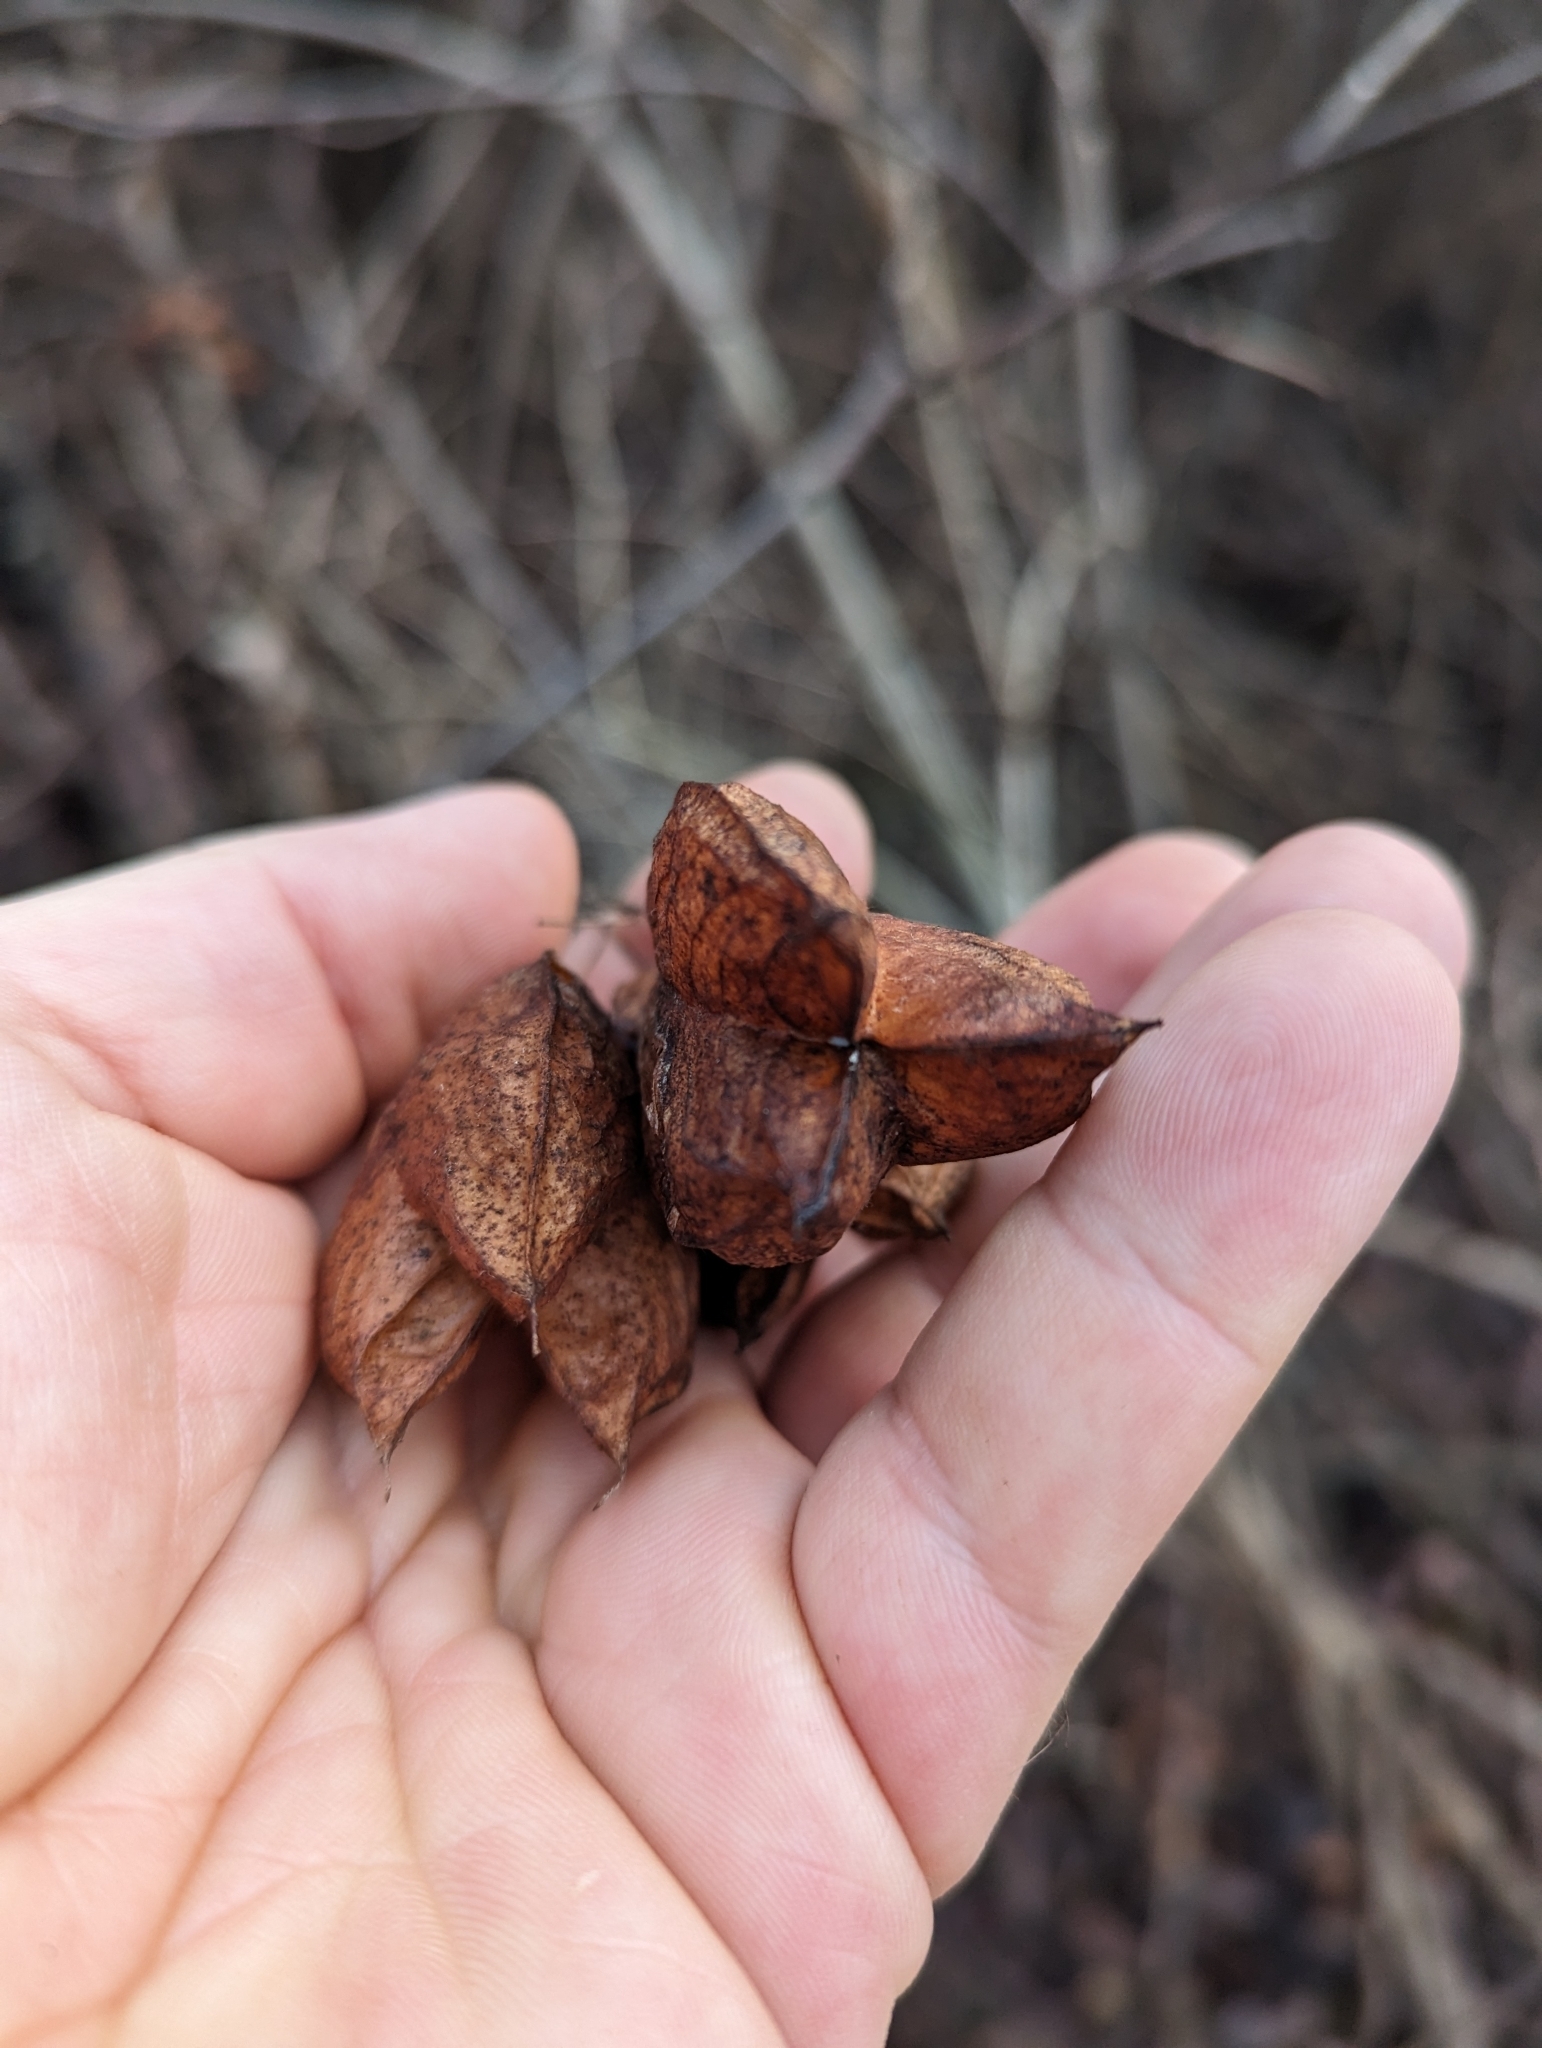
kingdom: Plantae
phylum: Tracheophyta
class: Magnoliopsida
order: Crossosomatales
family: Staphyleaceae
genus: Staphylea
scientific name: Staphylea trifolia
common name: American bladdernut
